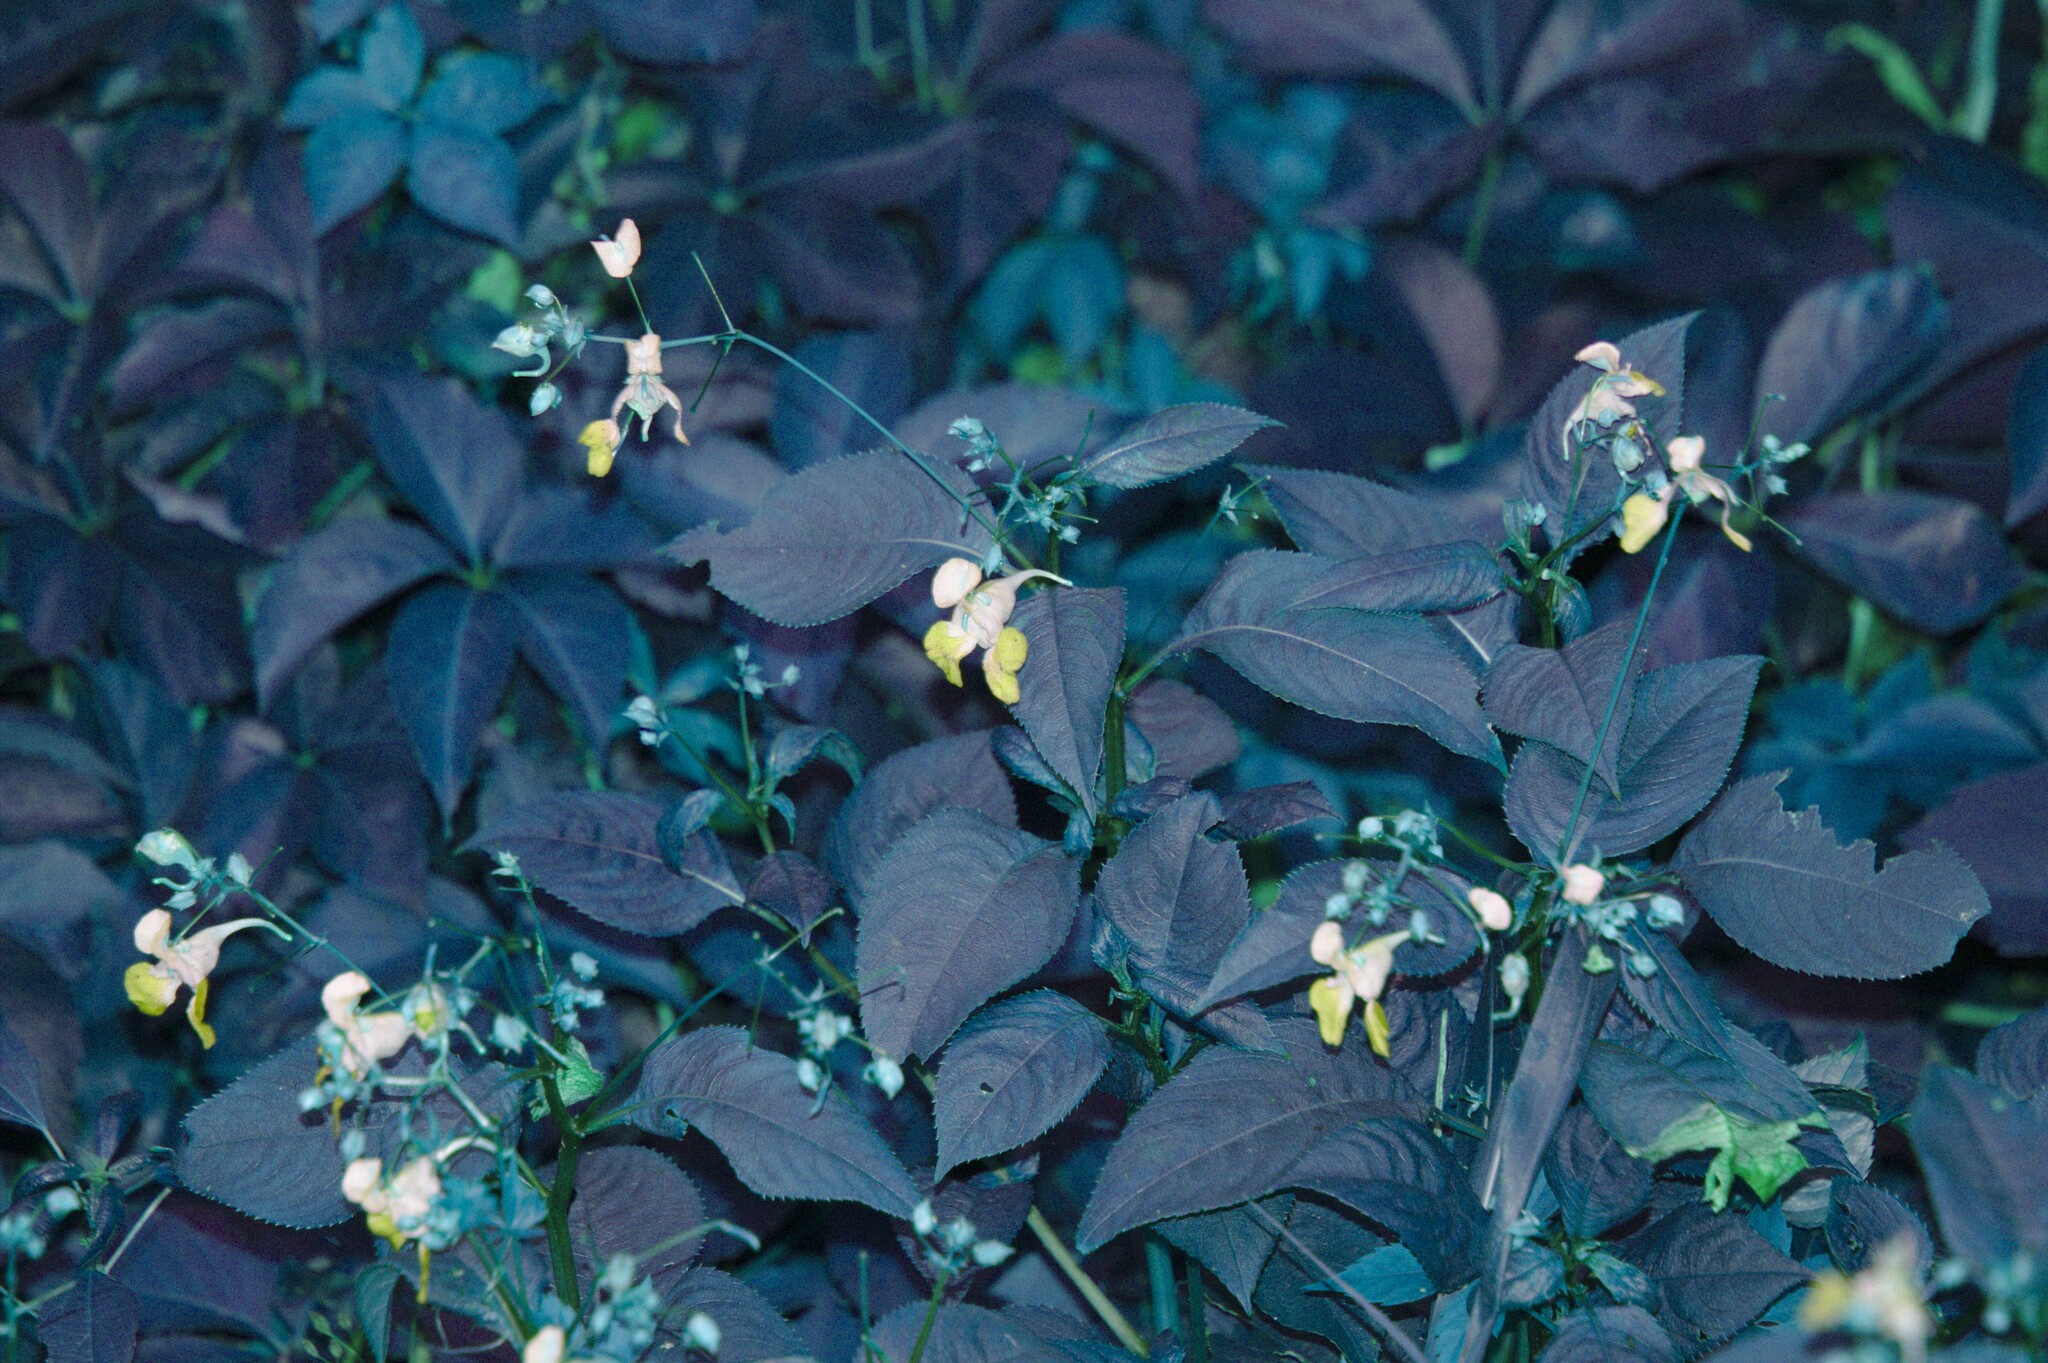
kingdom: Plantae
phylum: Tracheophyta
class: Magnoliopsida
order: Ericales
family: Balsaminaceae
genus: Impatiens
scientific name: Impatiens balfourii
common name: Balfour's touch-me-not
